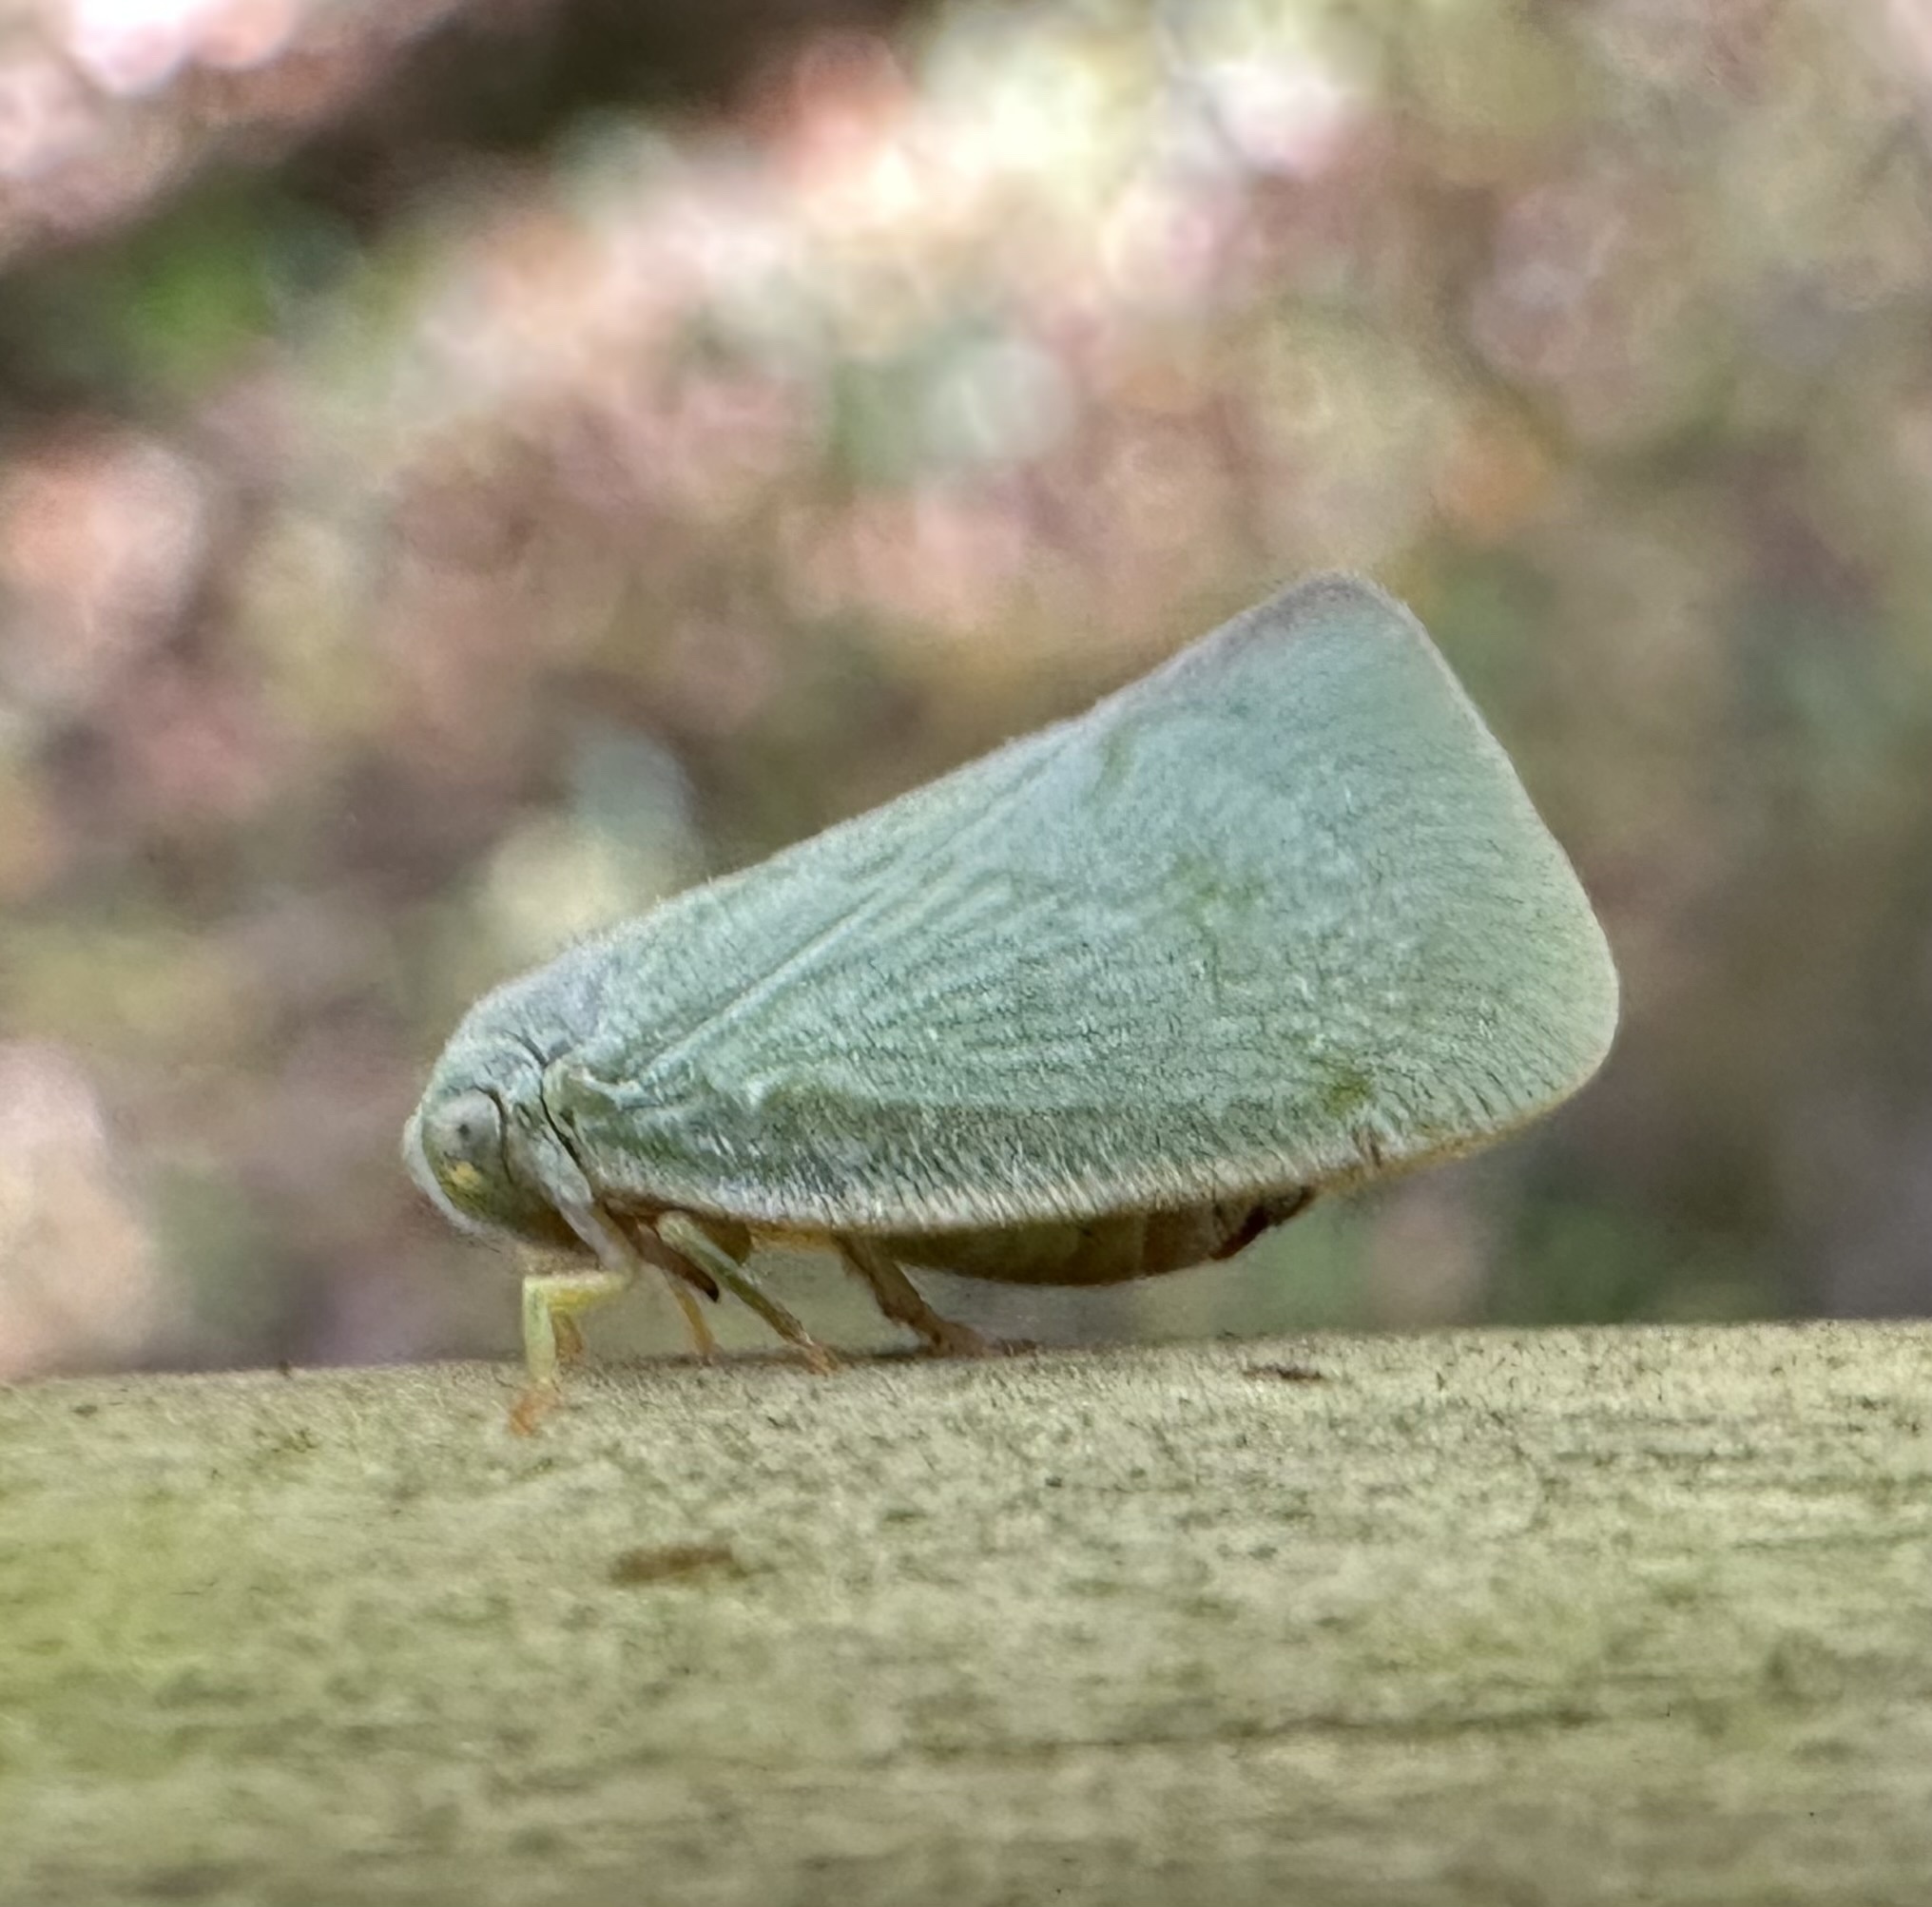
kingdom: Animalia
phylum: Arthropoda
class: Insecta
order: Hemiptera
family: Flatidae
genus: Flatormenis
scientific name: Flatormenis proxima
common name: Northern flatid planthopper
